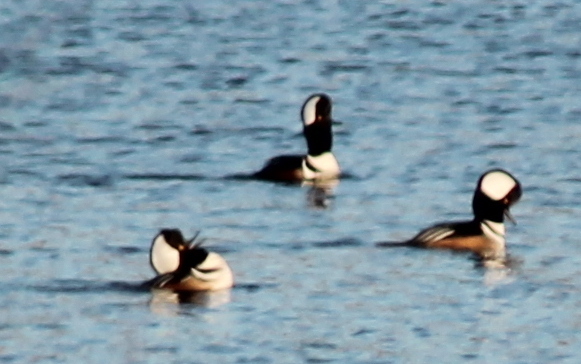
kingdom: Animalia
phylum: Chordata
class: Aves
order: Anseriformes
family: Anatidae
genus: Lophodytes
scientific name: Lophodytes cucullatus
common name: Hooded merganser
